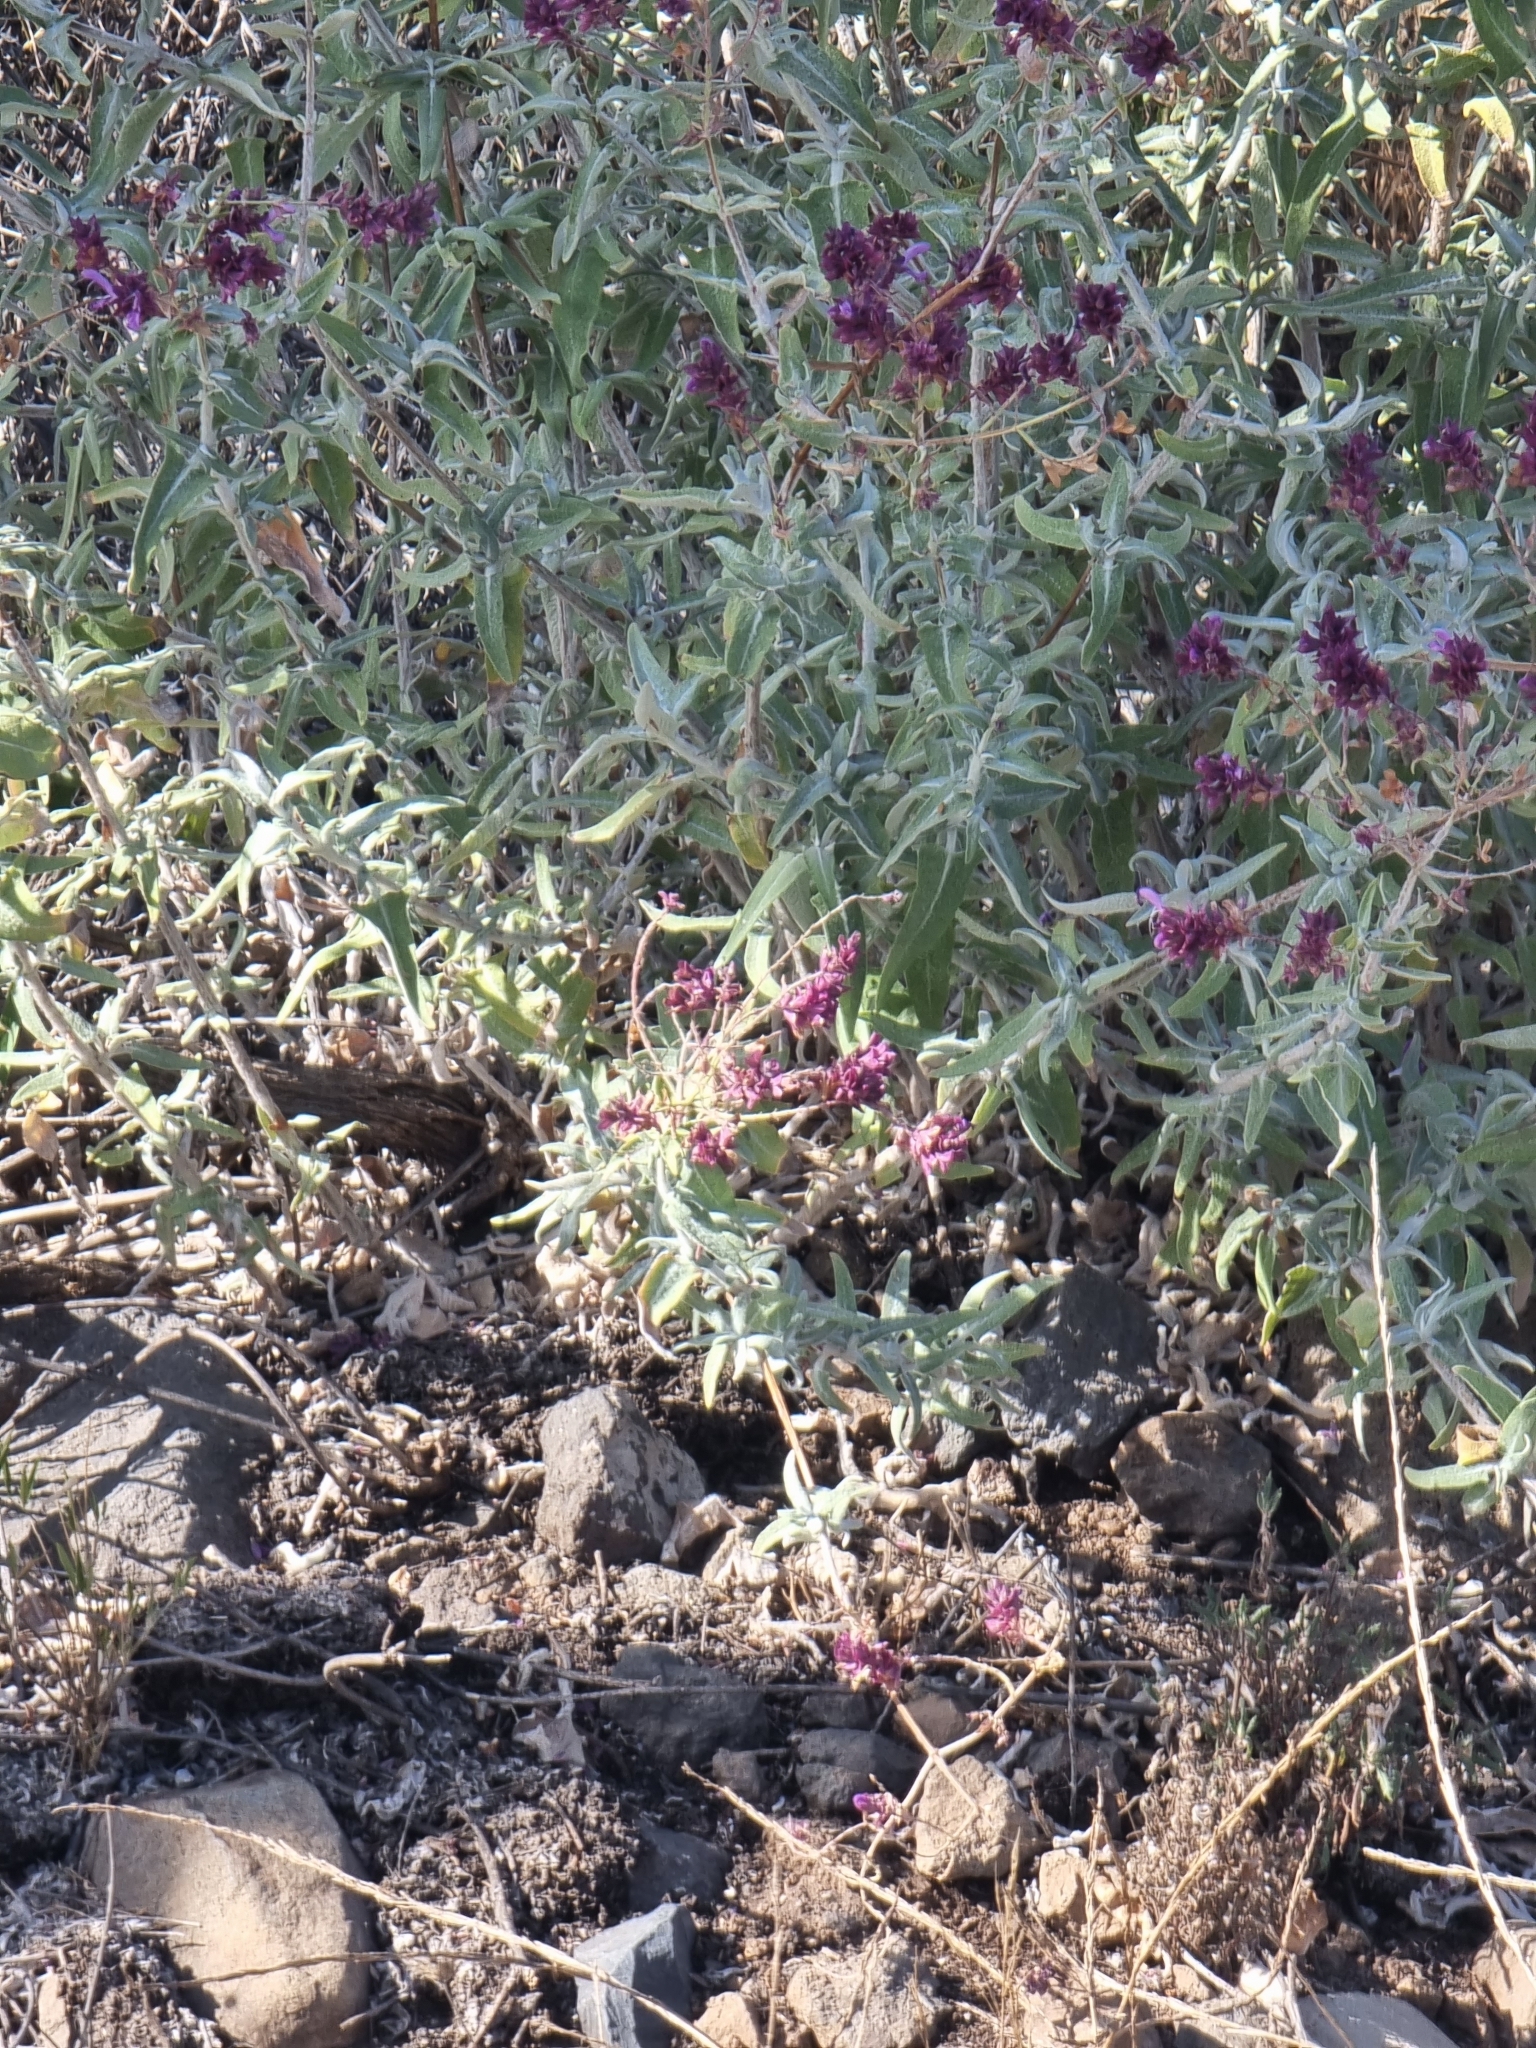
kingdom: Plantae
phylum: Tracheophyta
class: Magnoliopsida
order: Lamiales
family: Lamiaceae
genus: Salvia
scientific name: Salvia canariensis
